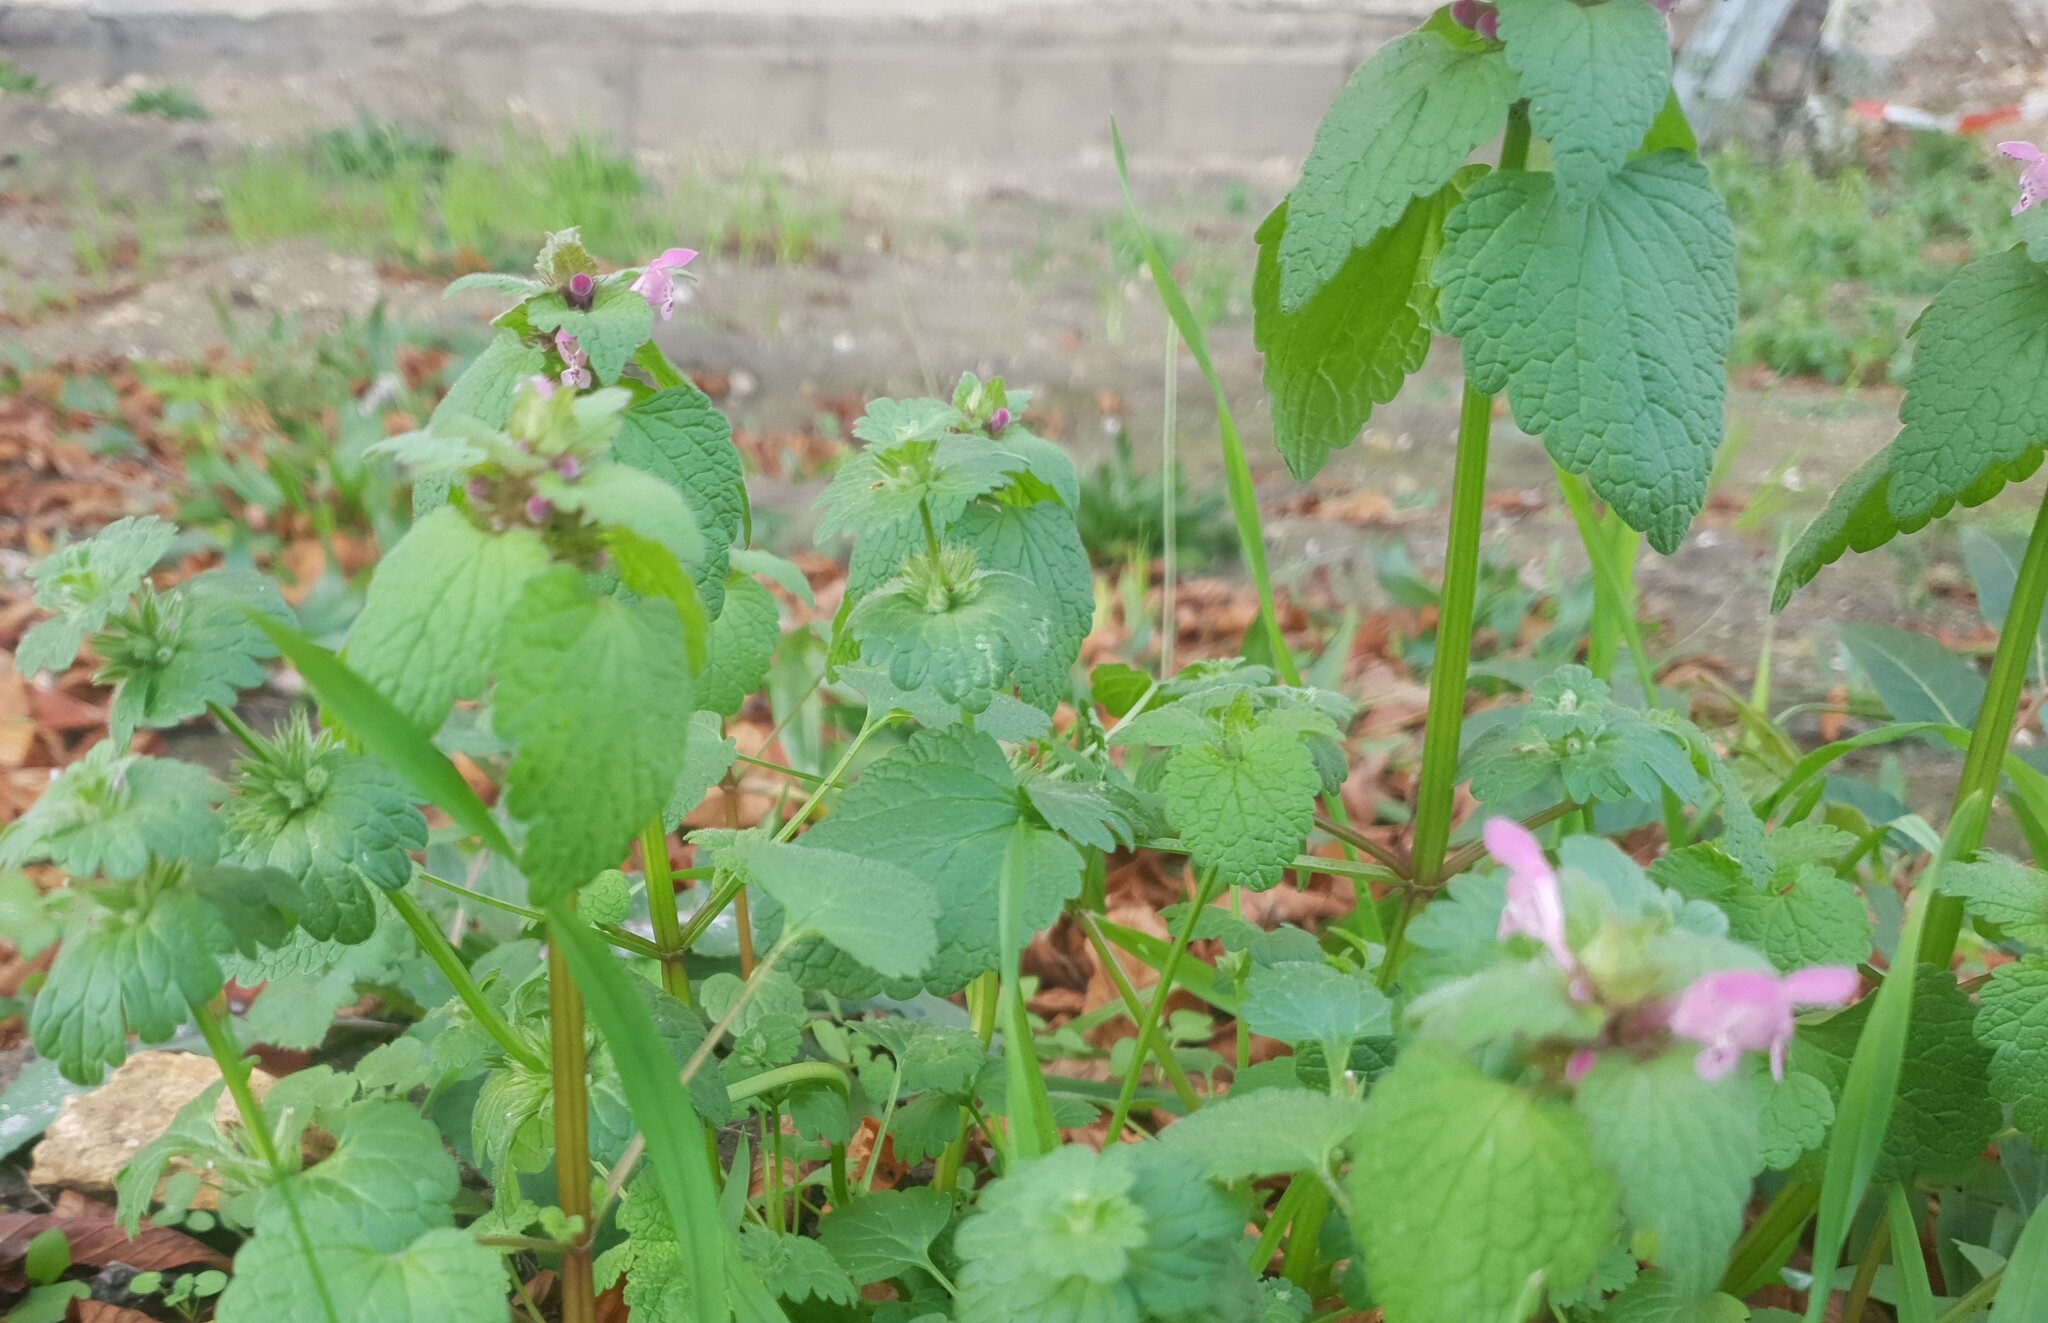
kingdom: Plantae
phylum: Tracheophyta
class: Magnoliopsida
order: Lamiales
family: Lamiaceae
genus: Lamium
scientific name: Lamium purpureum
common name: Red dead-nettle
